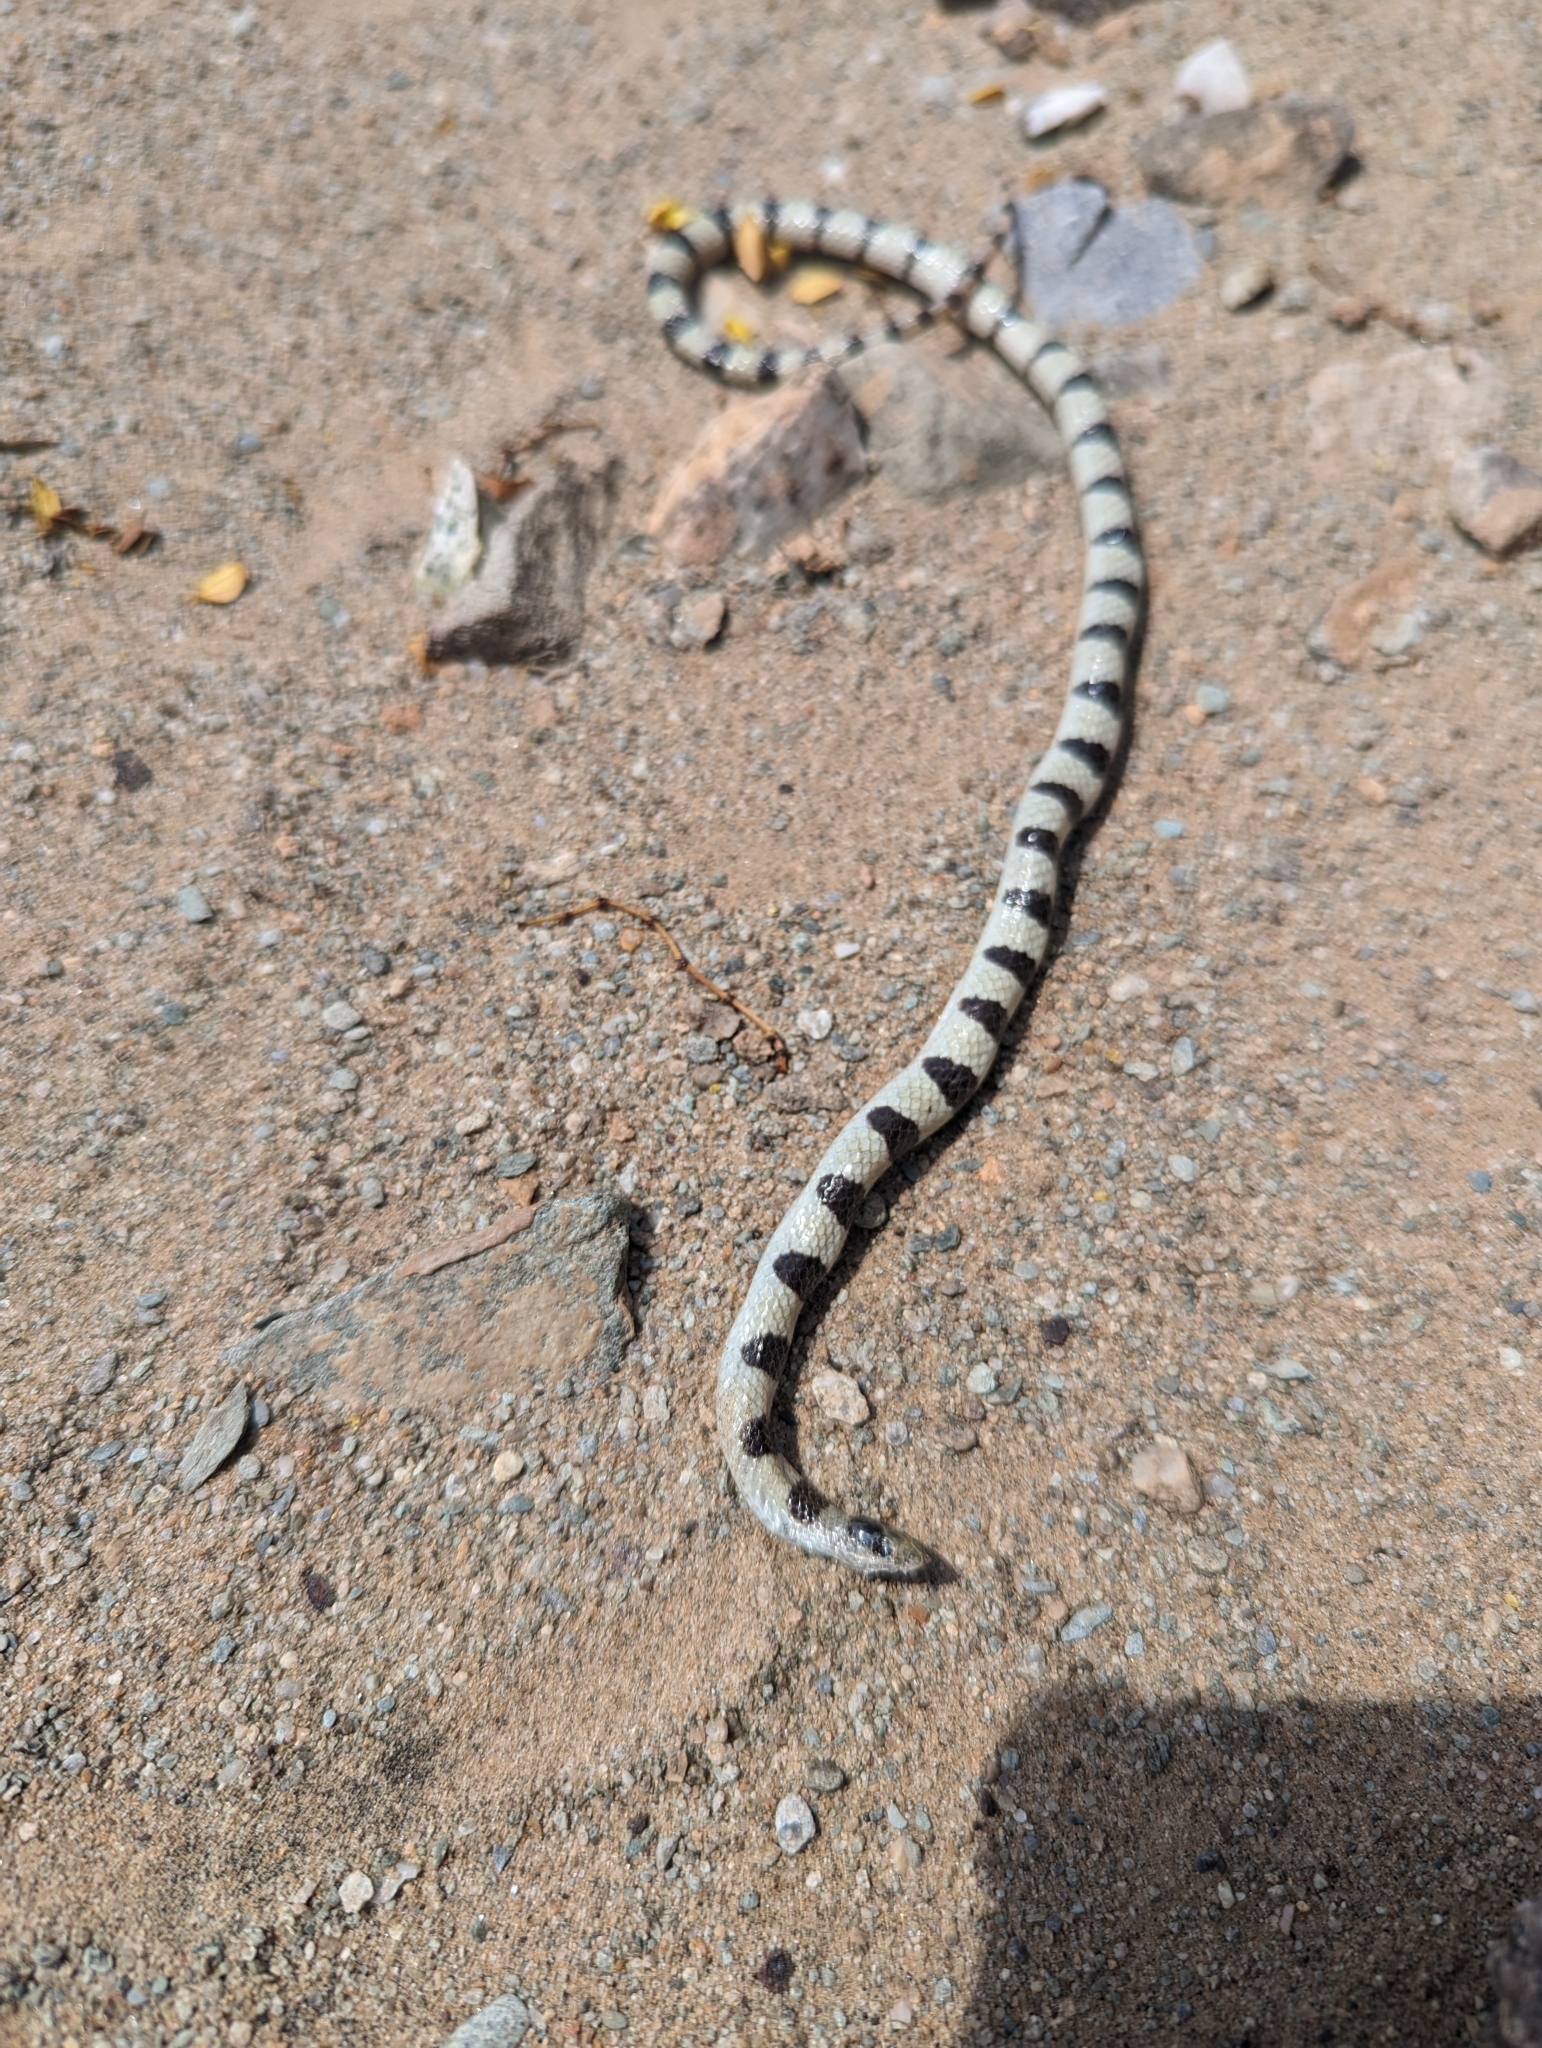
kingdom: Animalia
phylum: Chordata
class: Squamata
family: Colubridae
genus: Sonora
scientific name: Sonora occipitalis
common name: Western shovelnose snake
